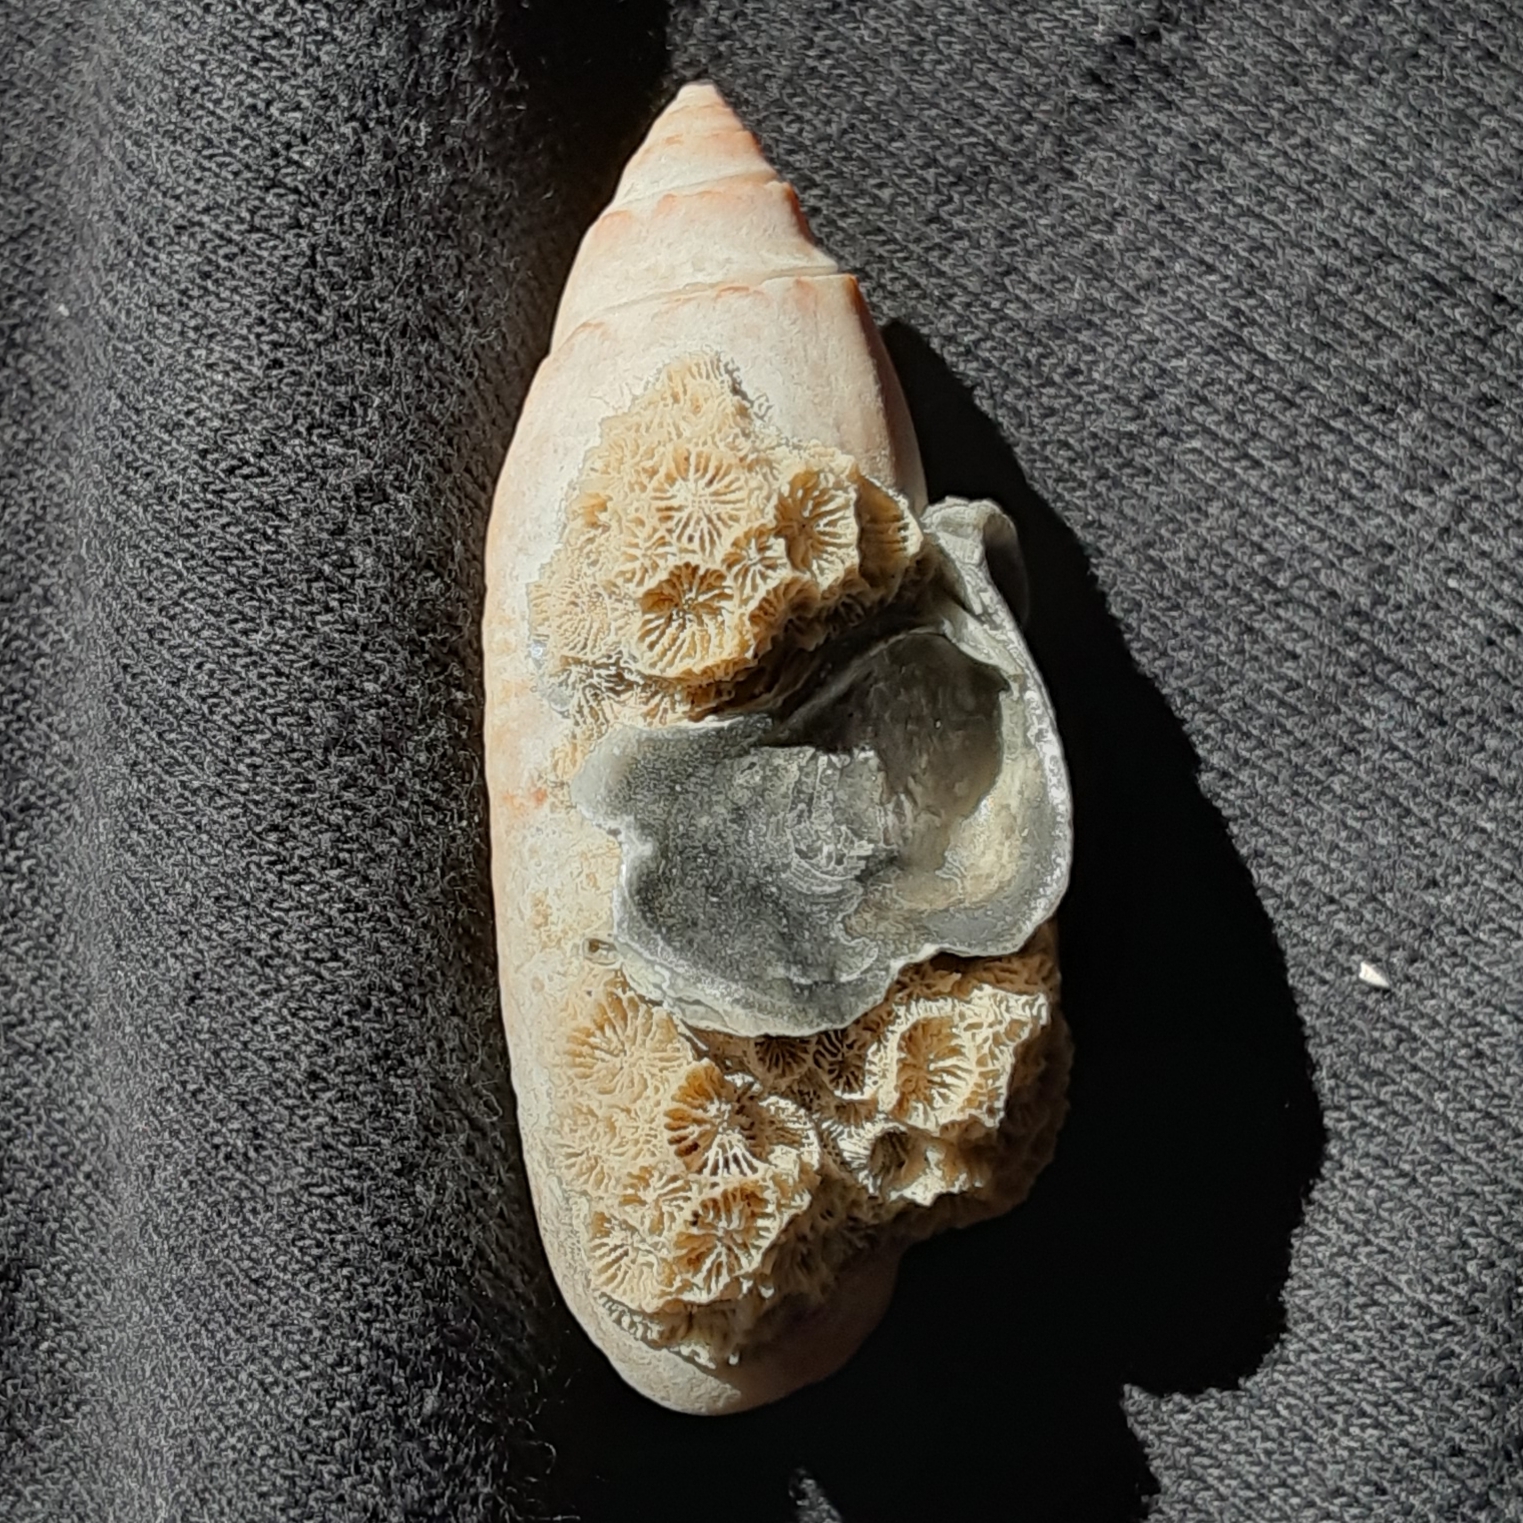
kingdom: Animalia
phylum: Mollusca
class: Gastropoda
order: Neogastropoda
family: Olividae
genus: Oliva
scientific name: Oliva sayana
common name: Lettered olive
